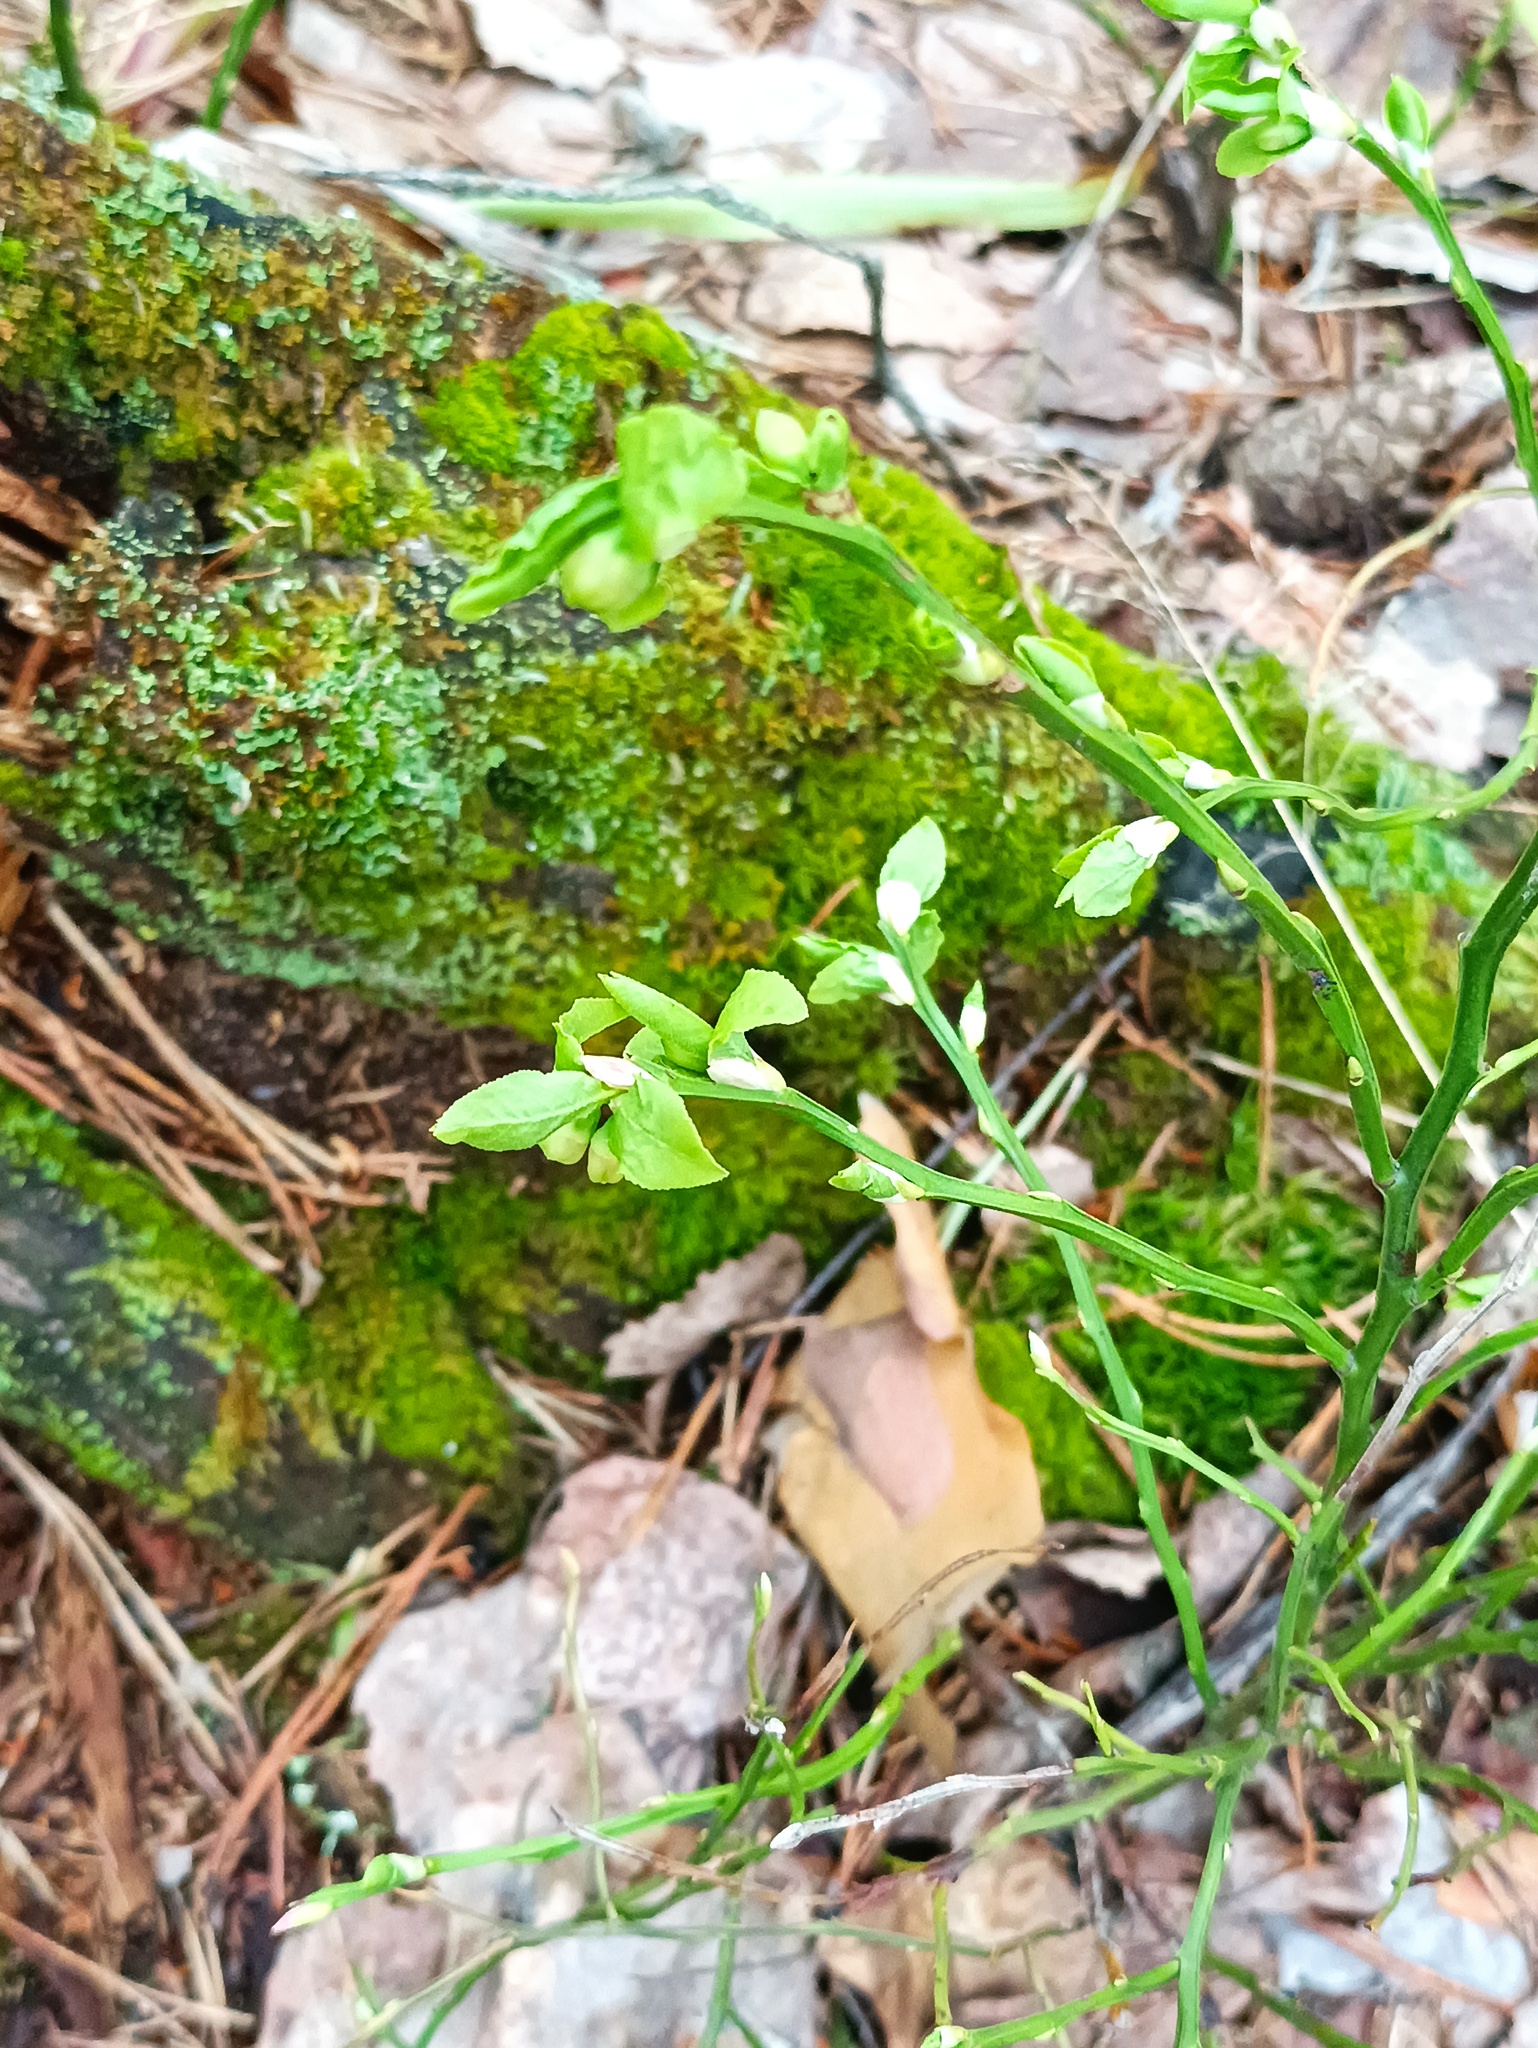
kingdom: Plantae
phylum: Tracheophyta
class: Magnoliopsida
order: Ericales
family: Ericaceae
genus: Vaccinium
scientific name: Vaccinium myrtillus
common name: Bilberry
